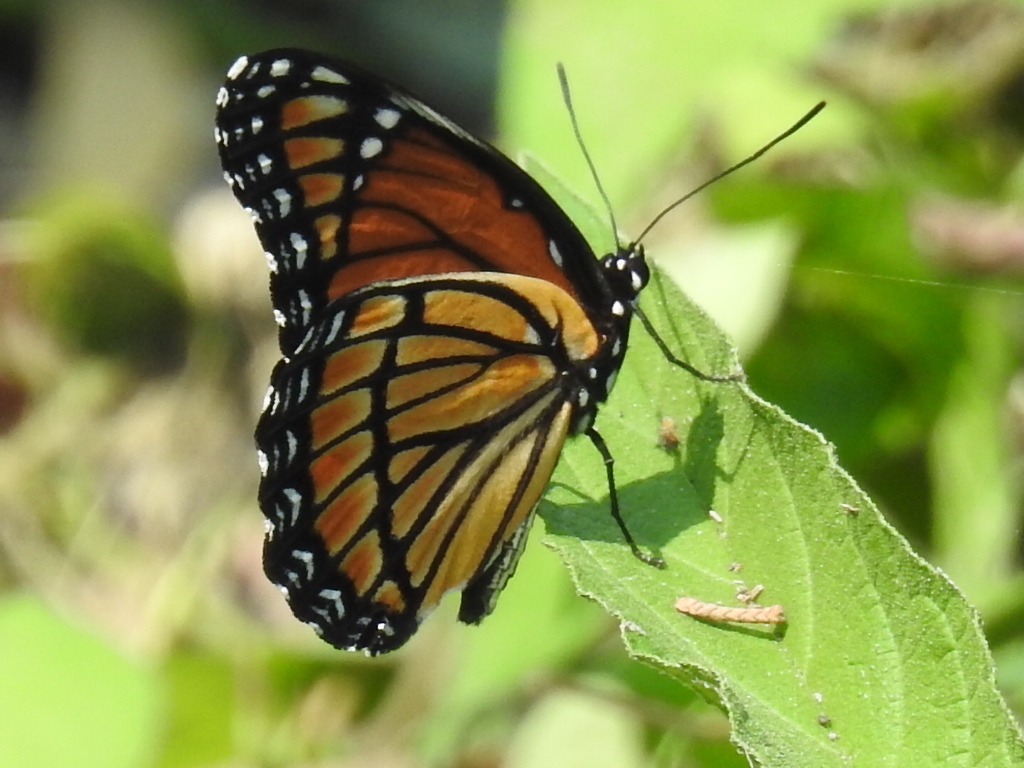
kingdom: Animalia
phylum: Arthropoda
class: Insecta
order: Lepidoptera
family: Nymphalidae
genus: Limenitis
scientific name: Limenitis archippus
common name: Viceroy
